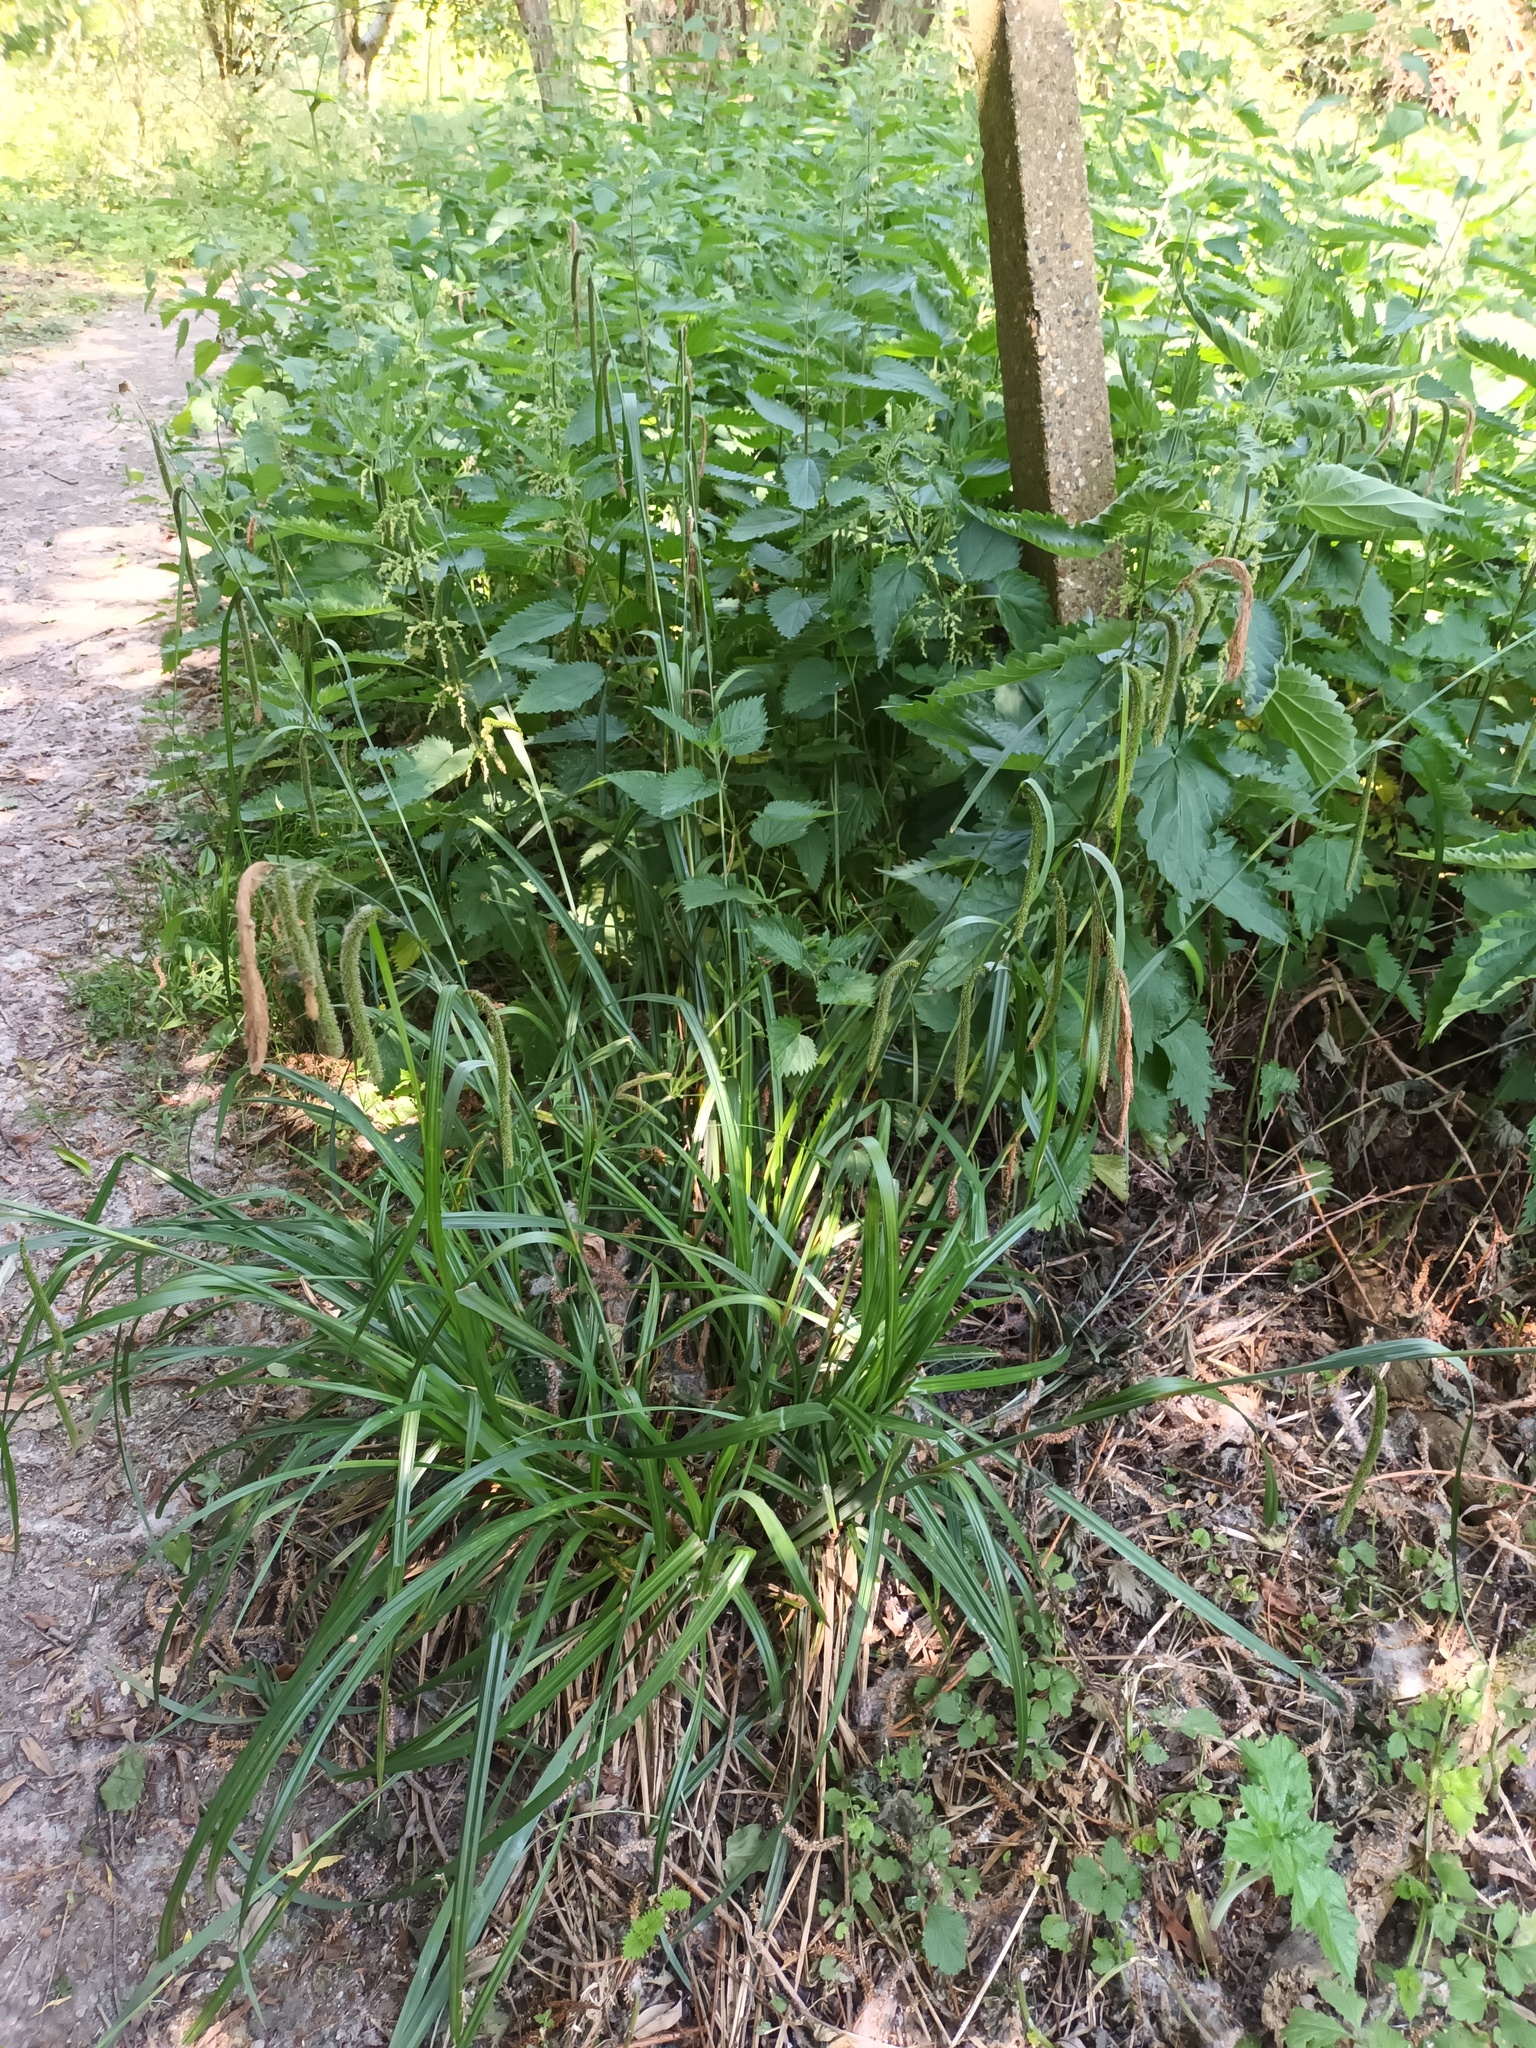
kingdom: Plantae
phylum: Tracheophyta
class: Liliopsida
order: Poales
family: Cyperaceae
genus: Carex
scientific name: Carex pendula
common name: Pendulous sedge
